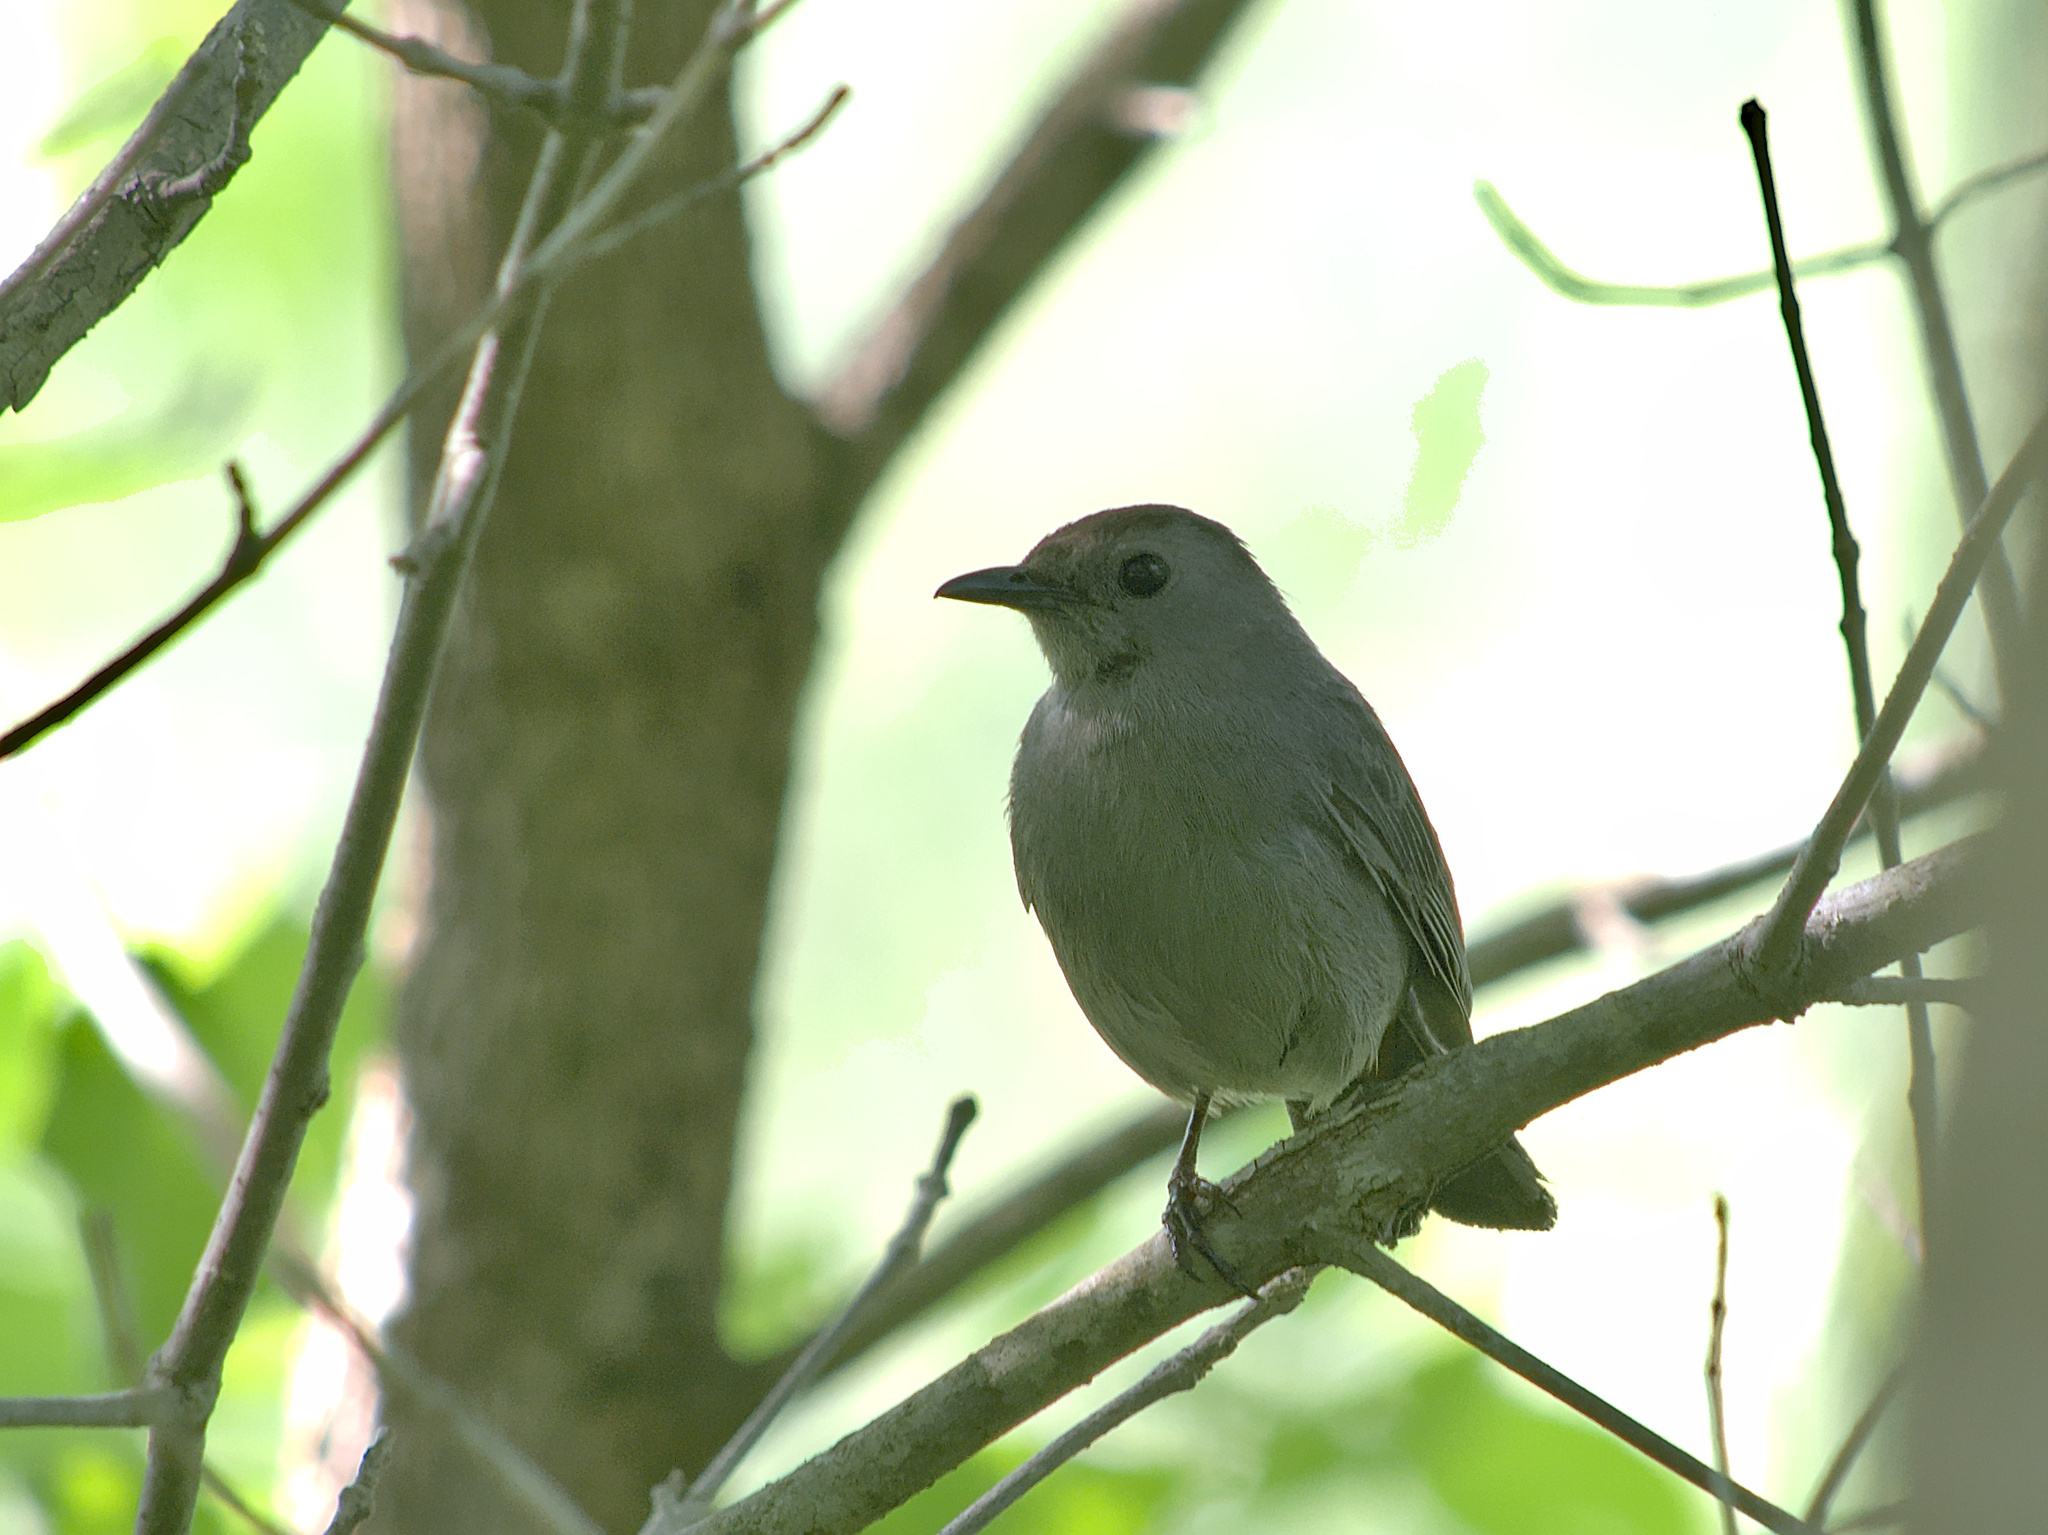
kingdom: Animalia
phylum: Chordata
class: Aves
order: Passeriformes
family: Mimidae
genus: Dumetella
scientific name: Dumetella carolinensis
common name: Gray catbird
